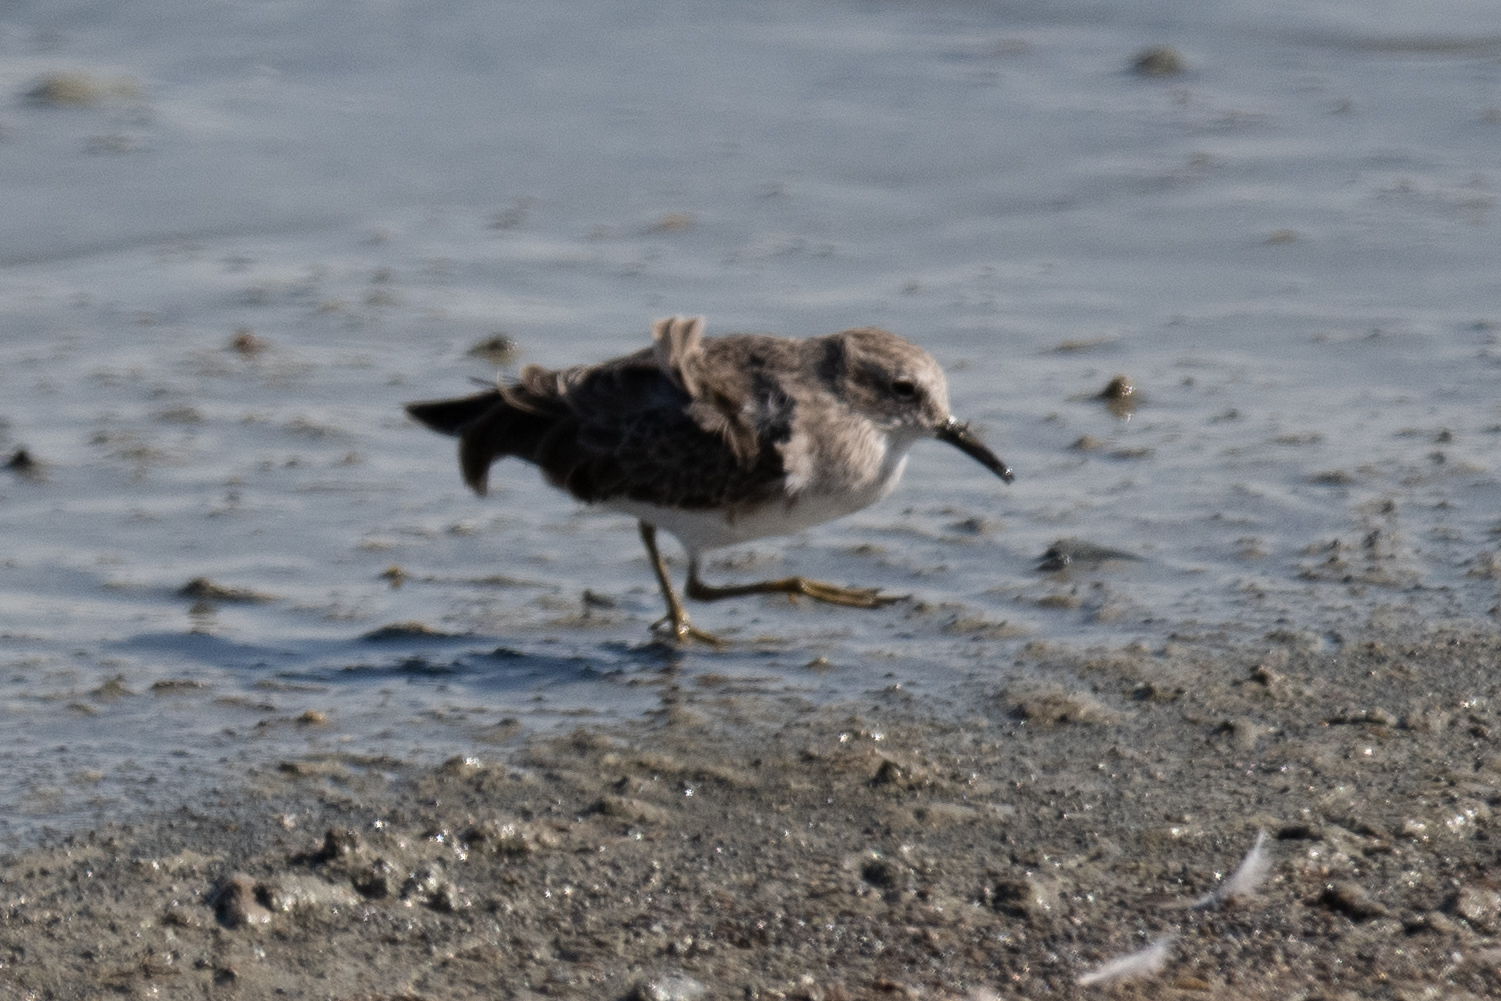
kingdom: Animalia
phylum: Chordata
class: Aves
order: Charadriiformes
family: Scolopacidae
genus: Calidris
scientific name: Calidris minutilla
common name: Least sandpiper
